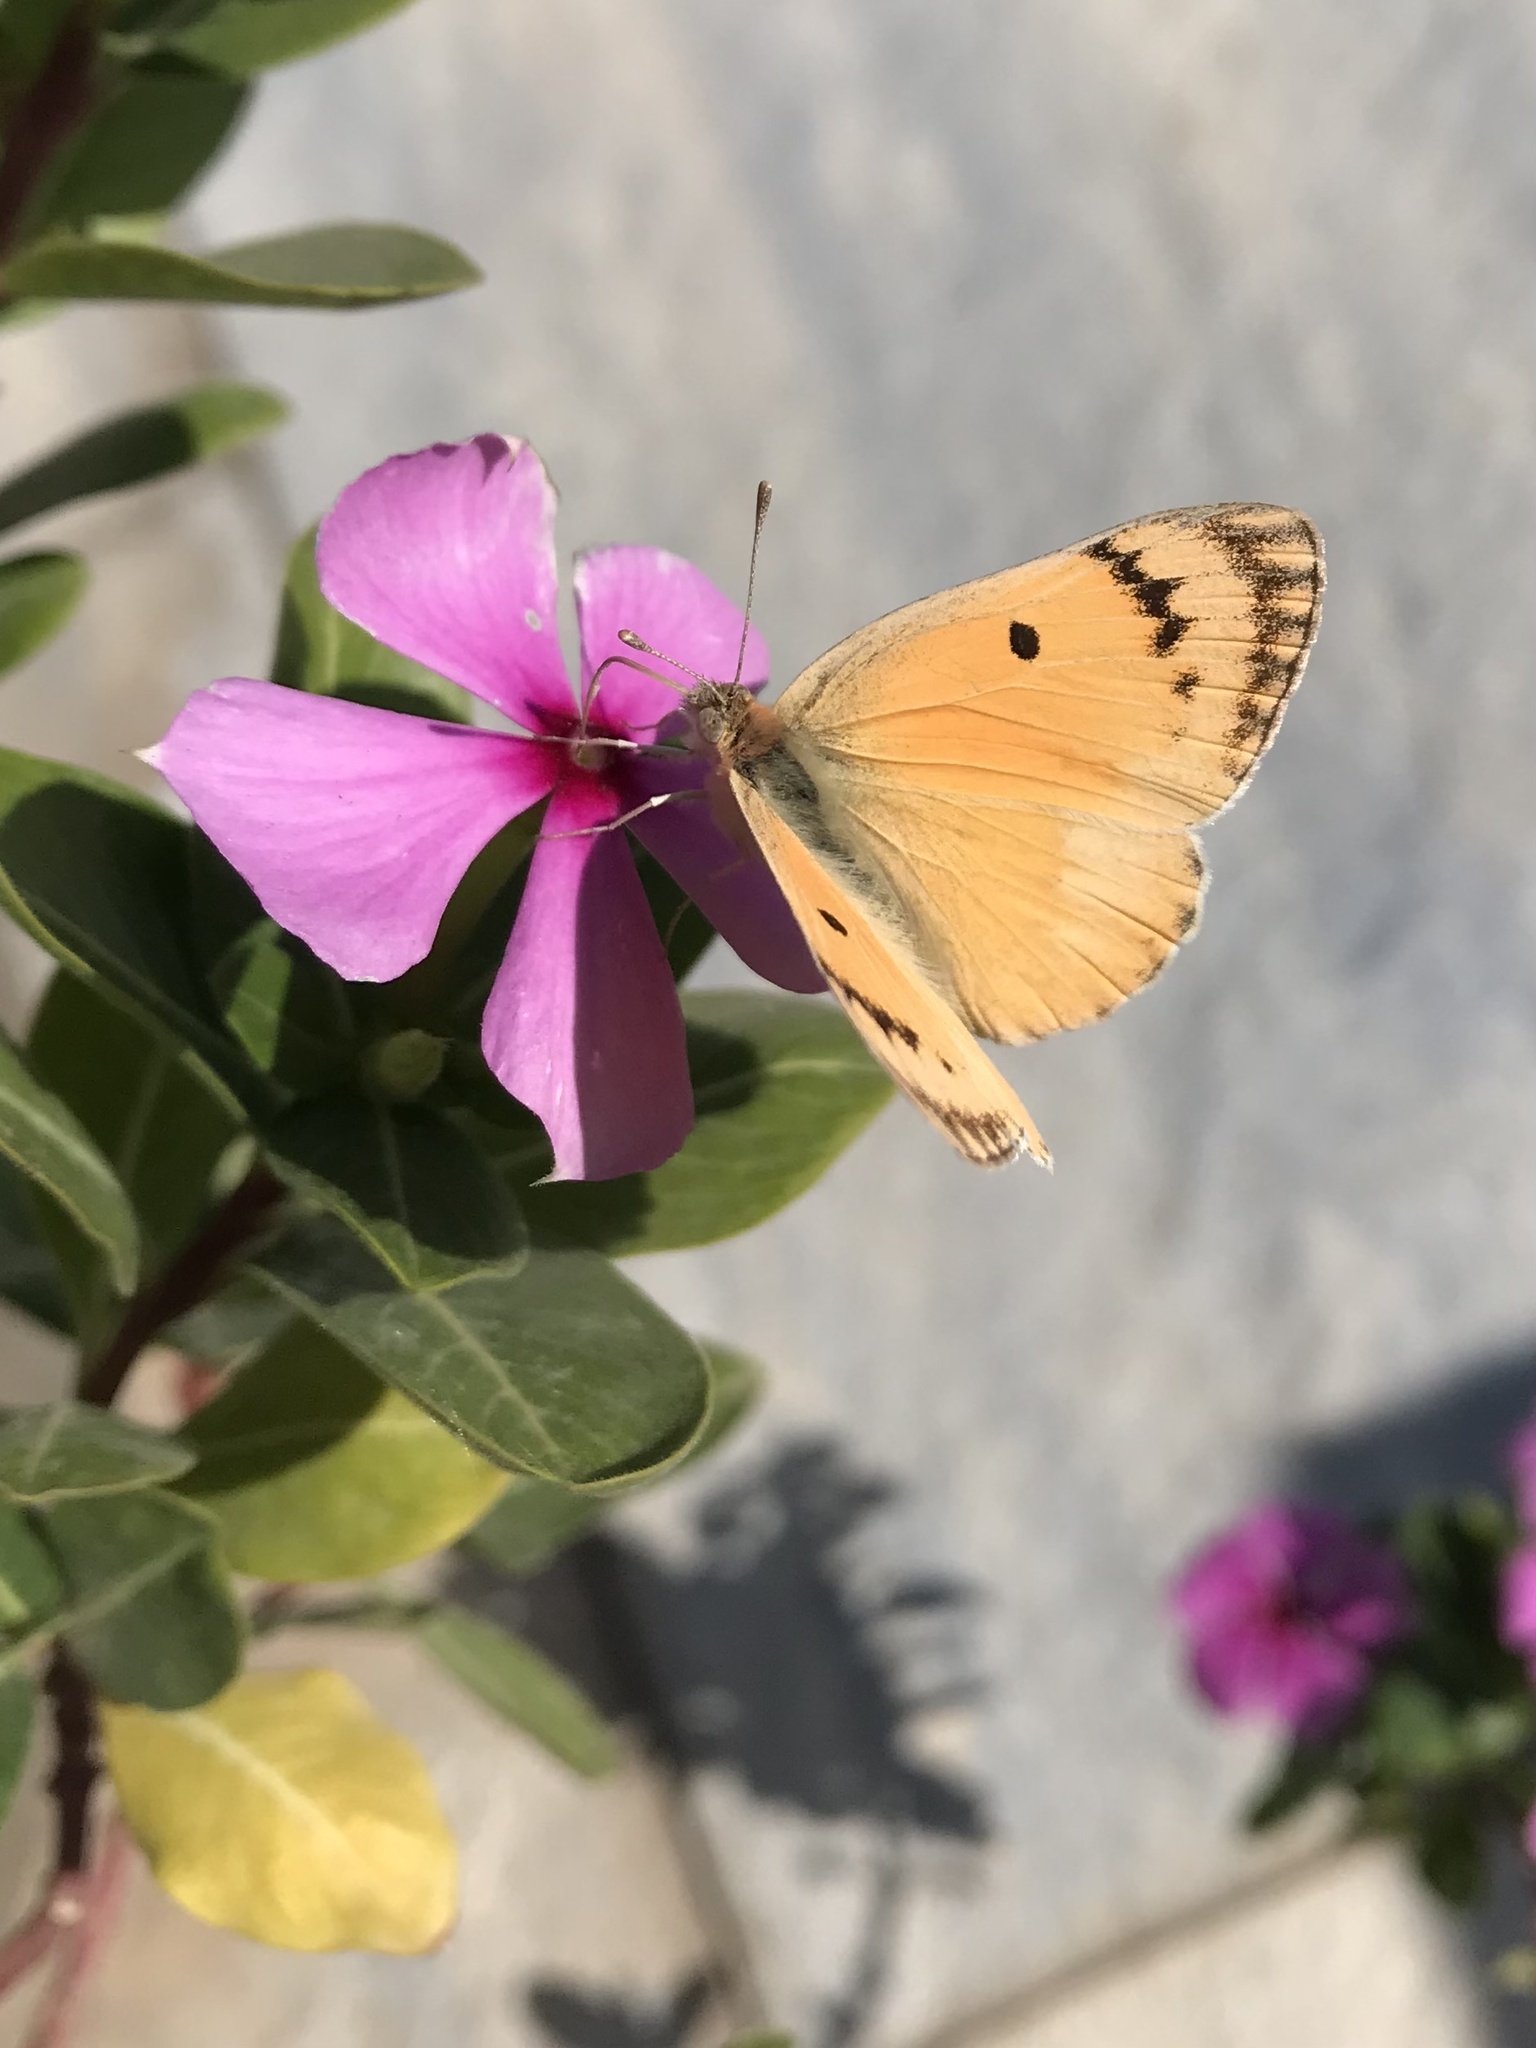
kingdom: Animalia
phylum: Arthropoda
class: Insecta
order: Lepidoptera
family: Pieridae
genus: Colotis
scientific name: Colotis fausta
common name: Large salmon arab
